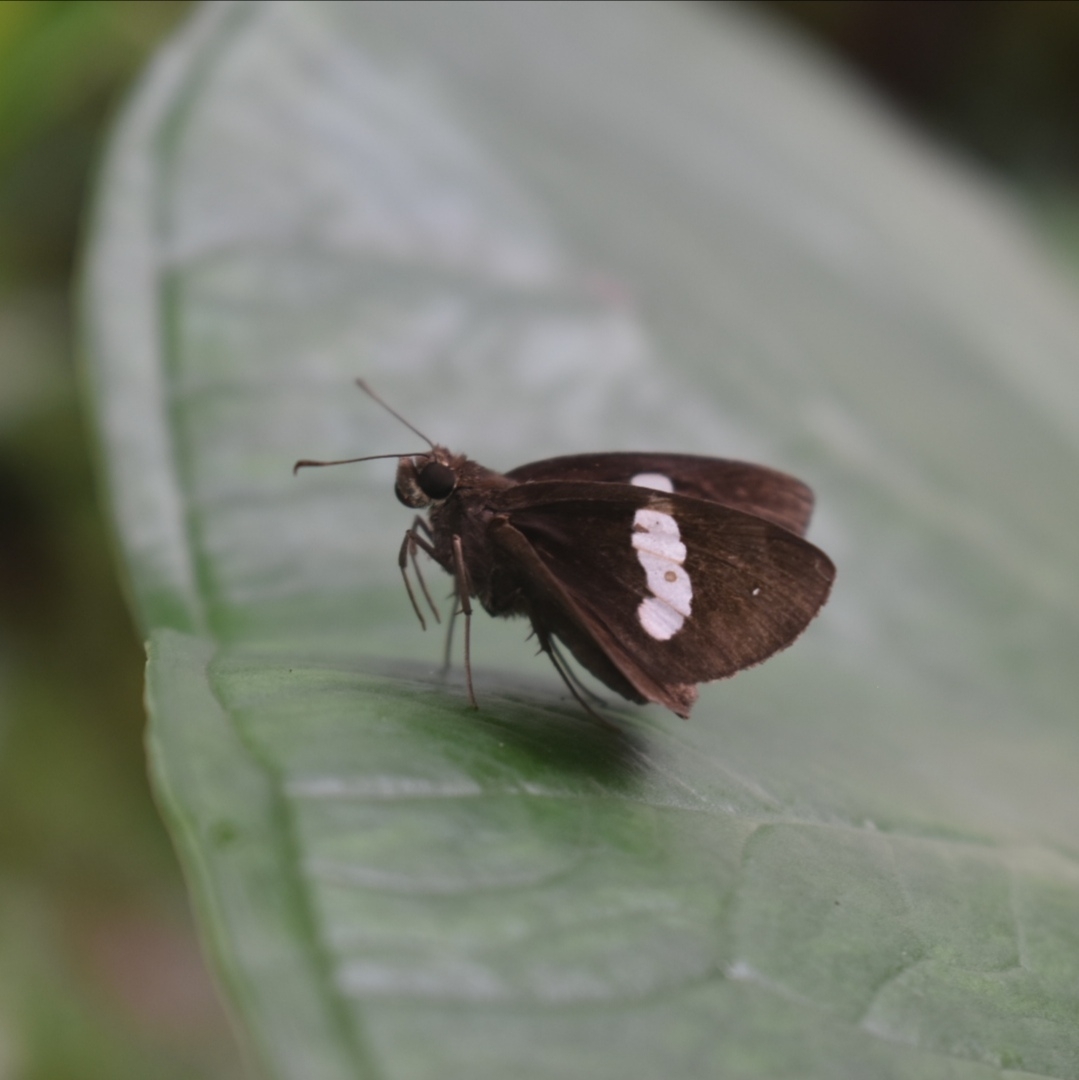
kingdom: Animalia
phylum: Arthropoda
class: Insecta
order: Lepidoptera
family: Hesperiidae
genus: Notocrypta
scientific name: Notocrypta paralysos
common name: Common banded demon
